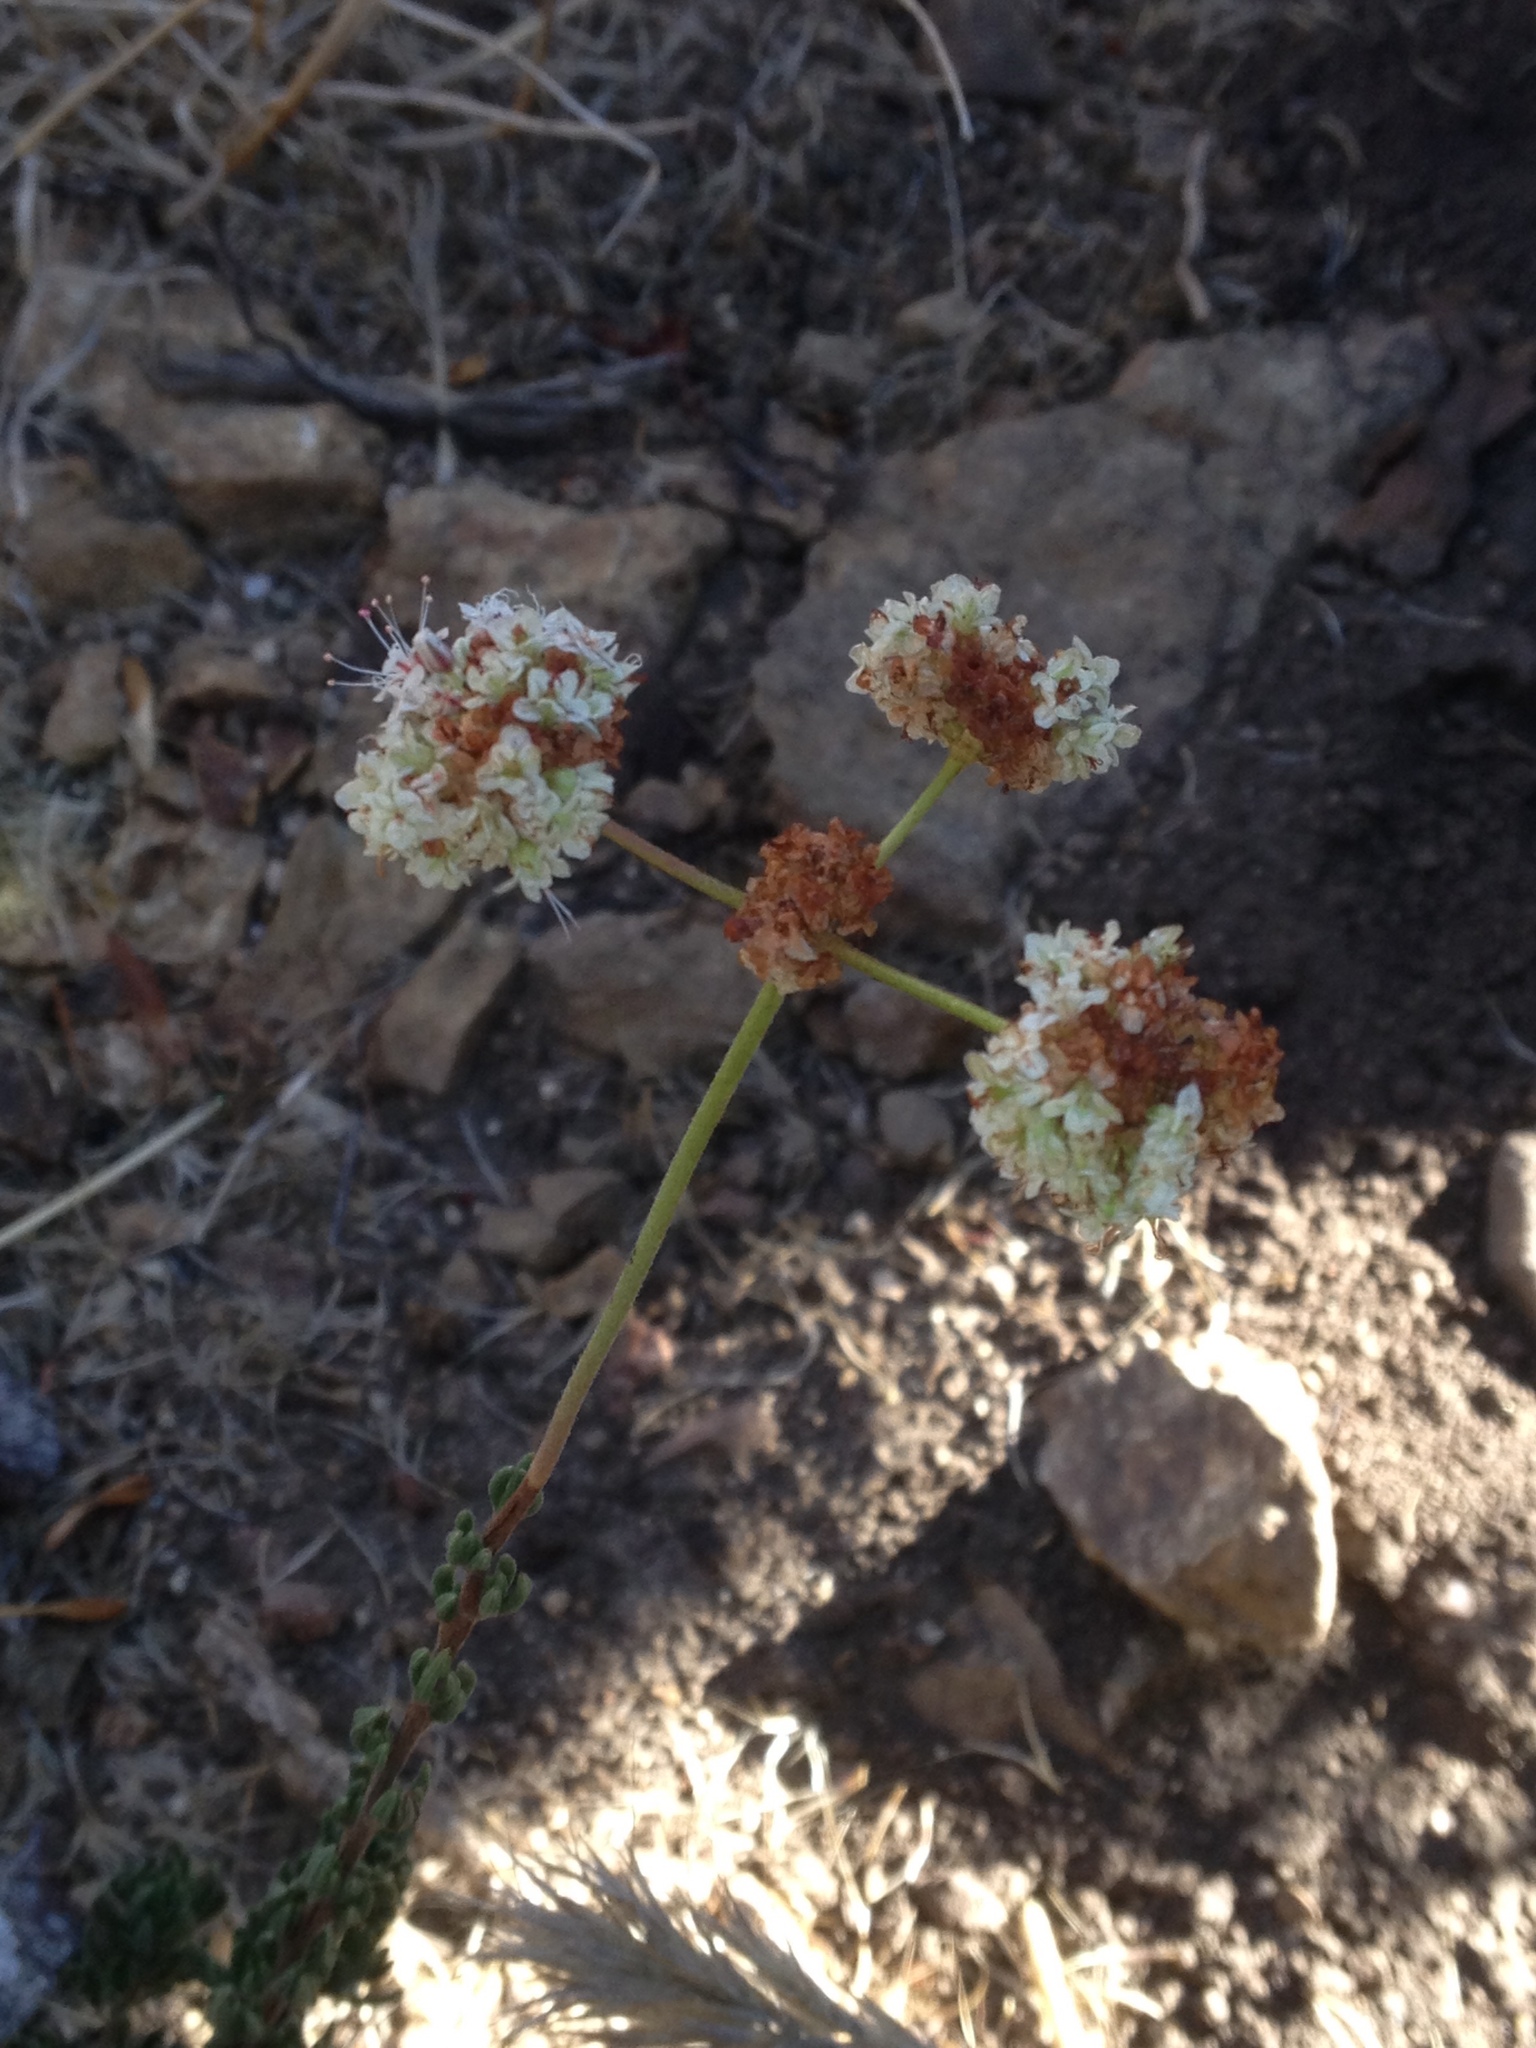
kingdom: Plantae
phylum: Tracheophyta
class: Magnoliopsida
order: Caryophyllales
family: Polygonaceae
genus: Eriogonum
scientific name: Eriogonum fasciculatum
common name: California wild buckwheat
